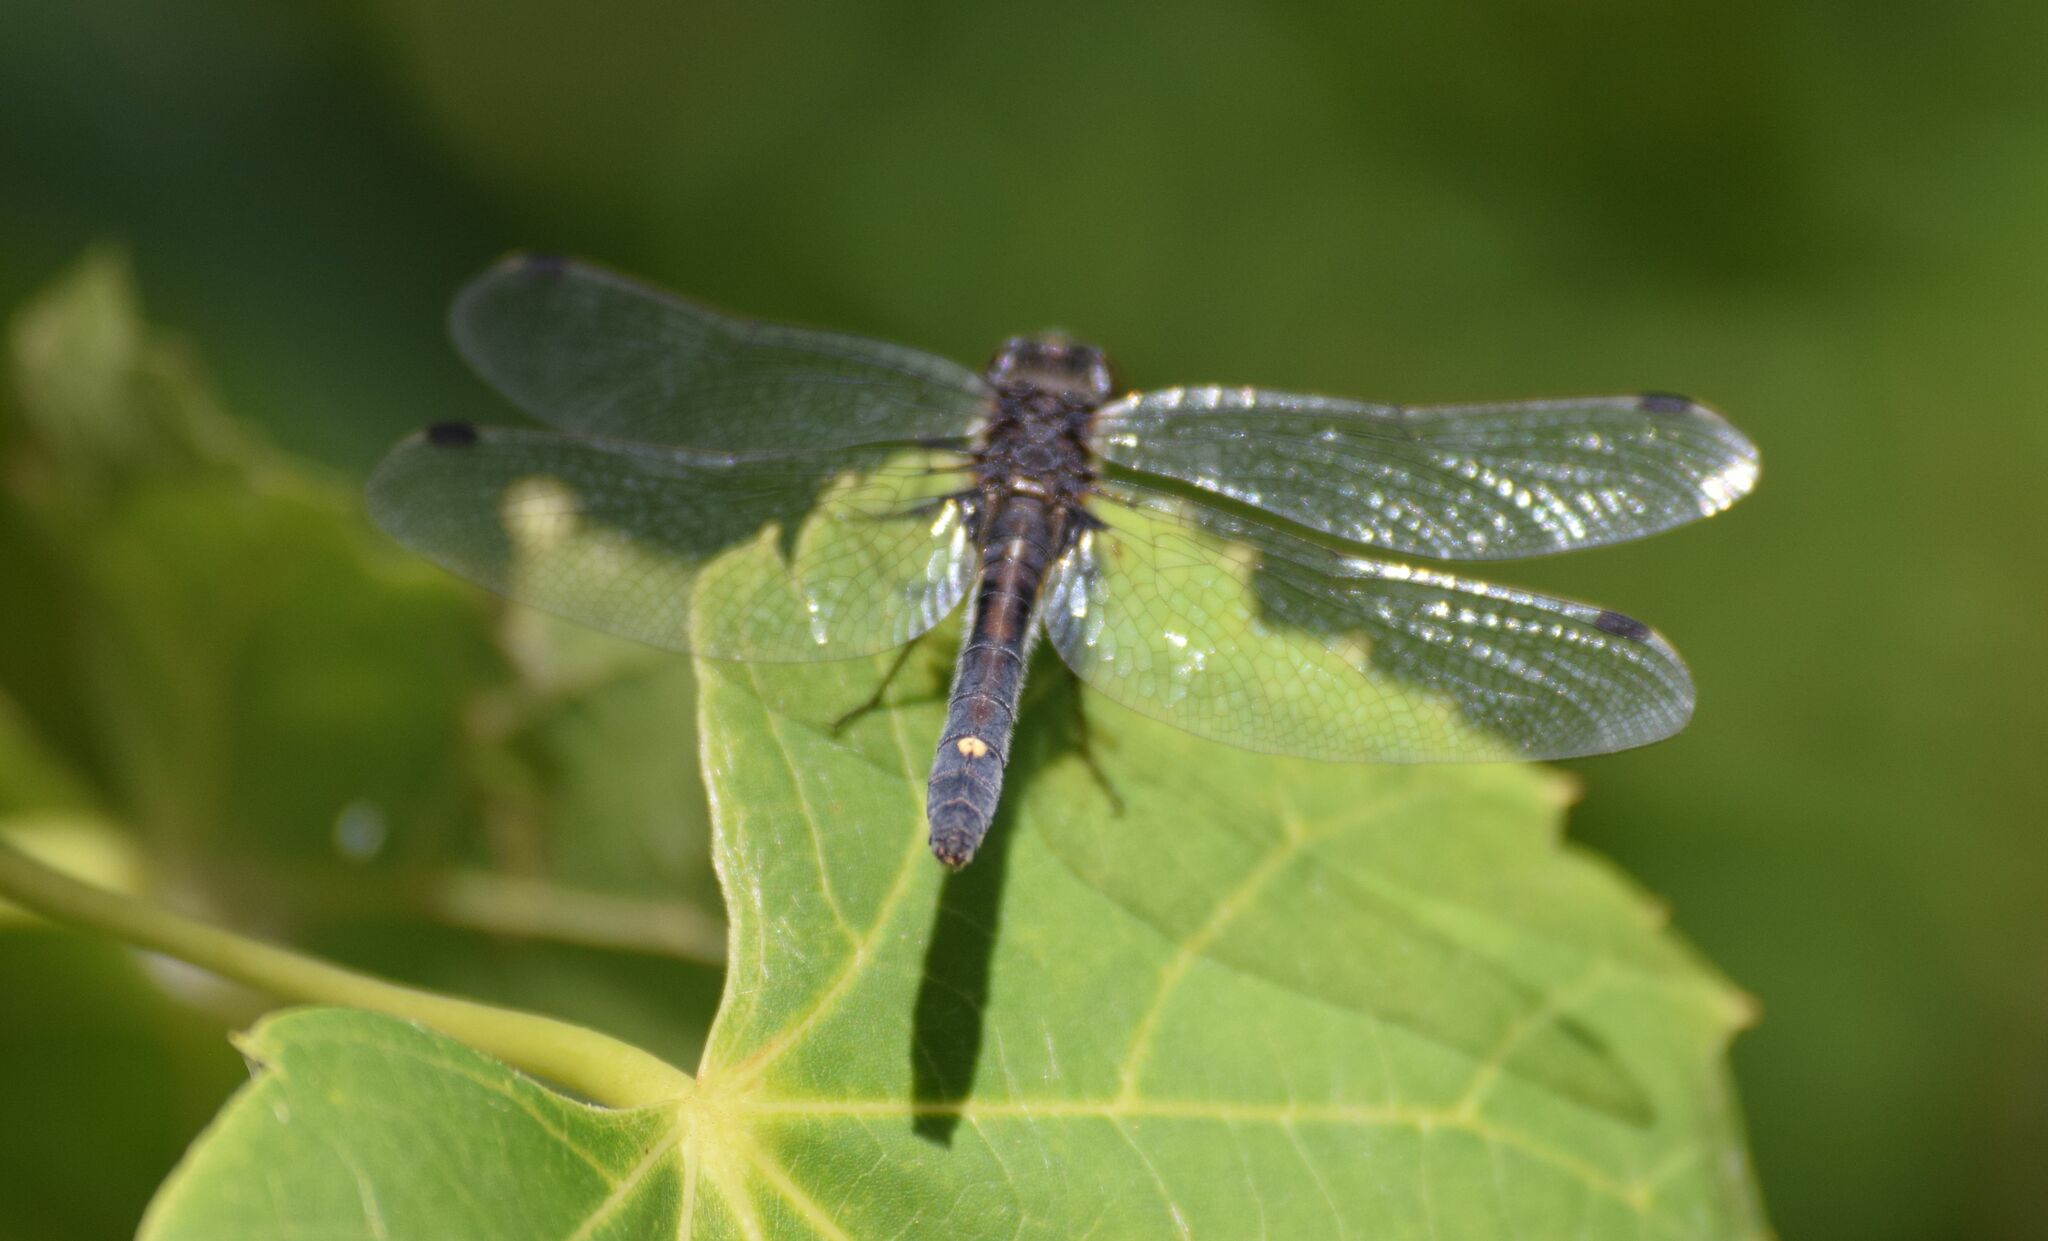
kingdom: Animalia
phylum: Arthropoda
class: Insecta
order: Odonata
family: Libellulidae
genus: Leucorrhinia
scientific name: Leucorrhinia intacta
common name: Dot-tailed whiteface
